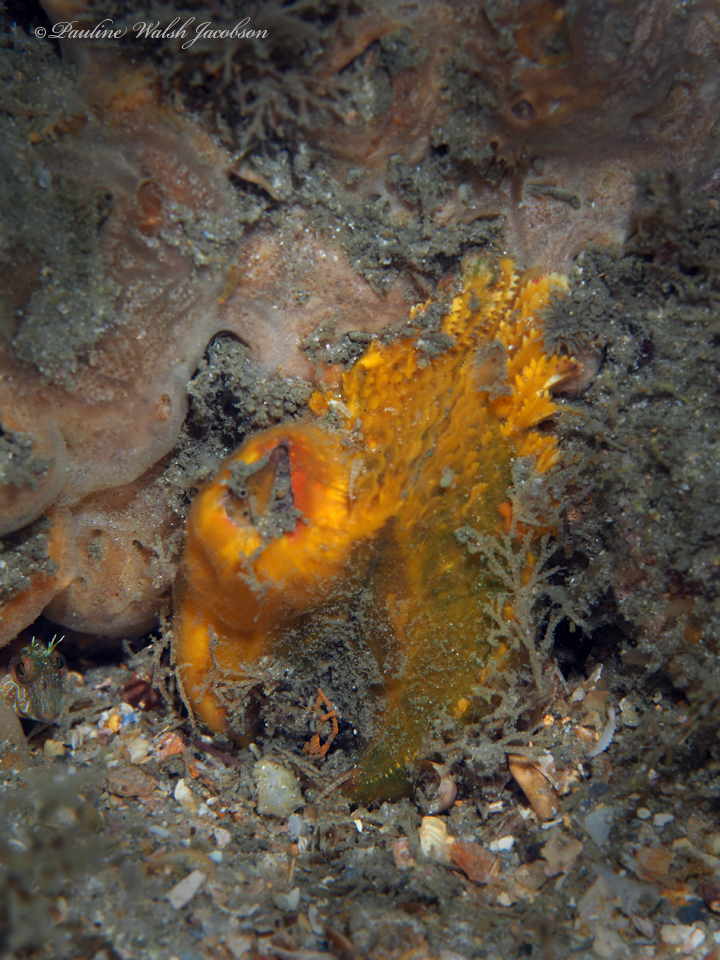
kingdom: Animalia
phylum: Mollusca
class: Bivalvia
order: Arcida
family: Arcidae
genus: Lamarcka
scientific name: Lamarcka imbricata
